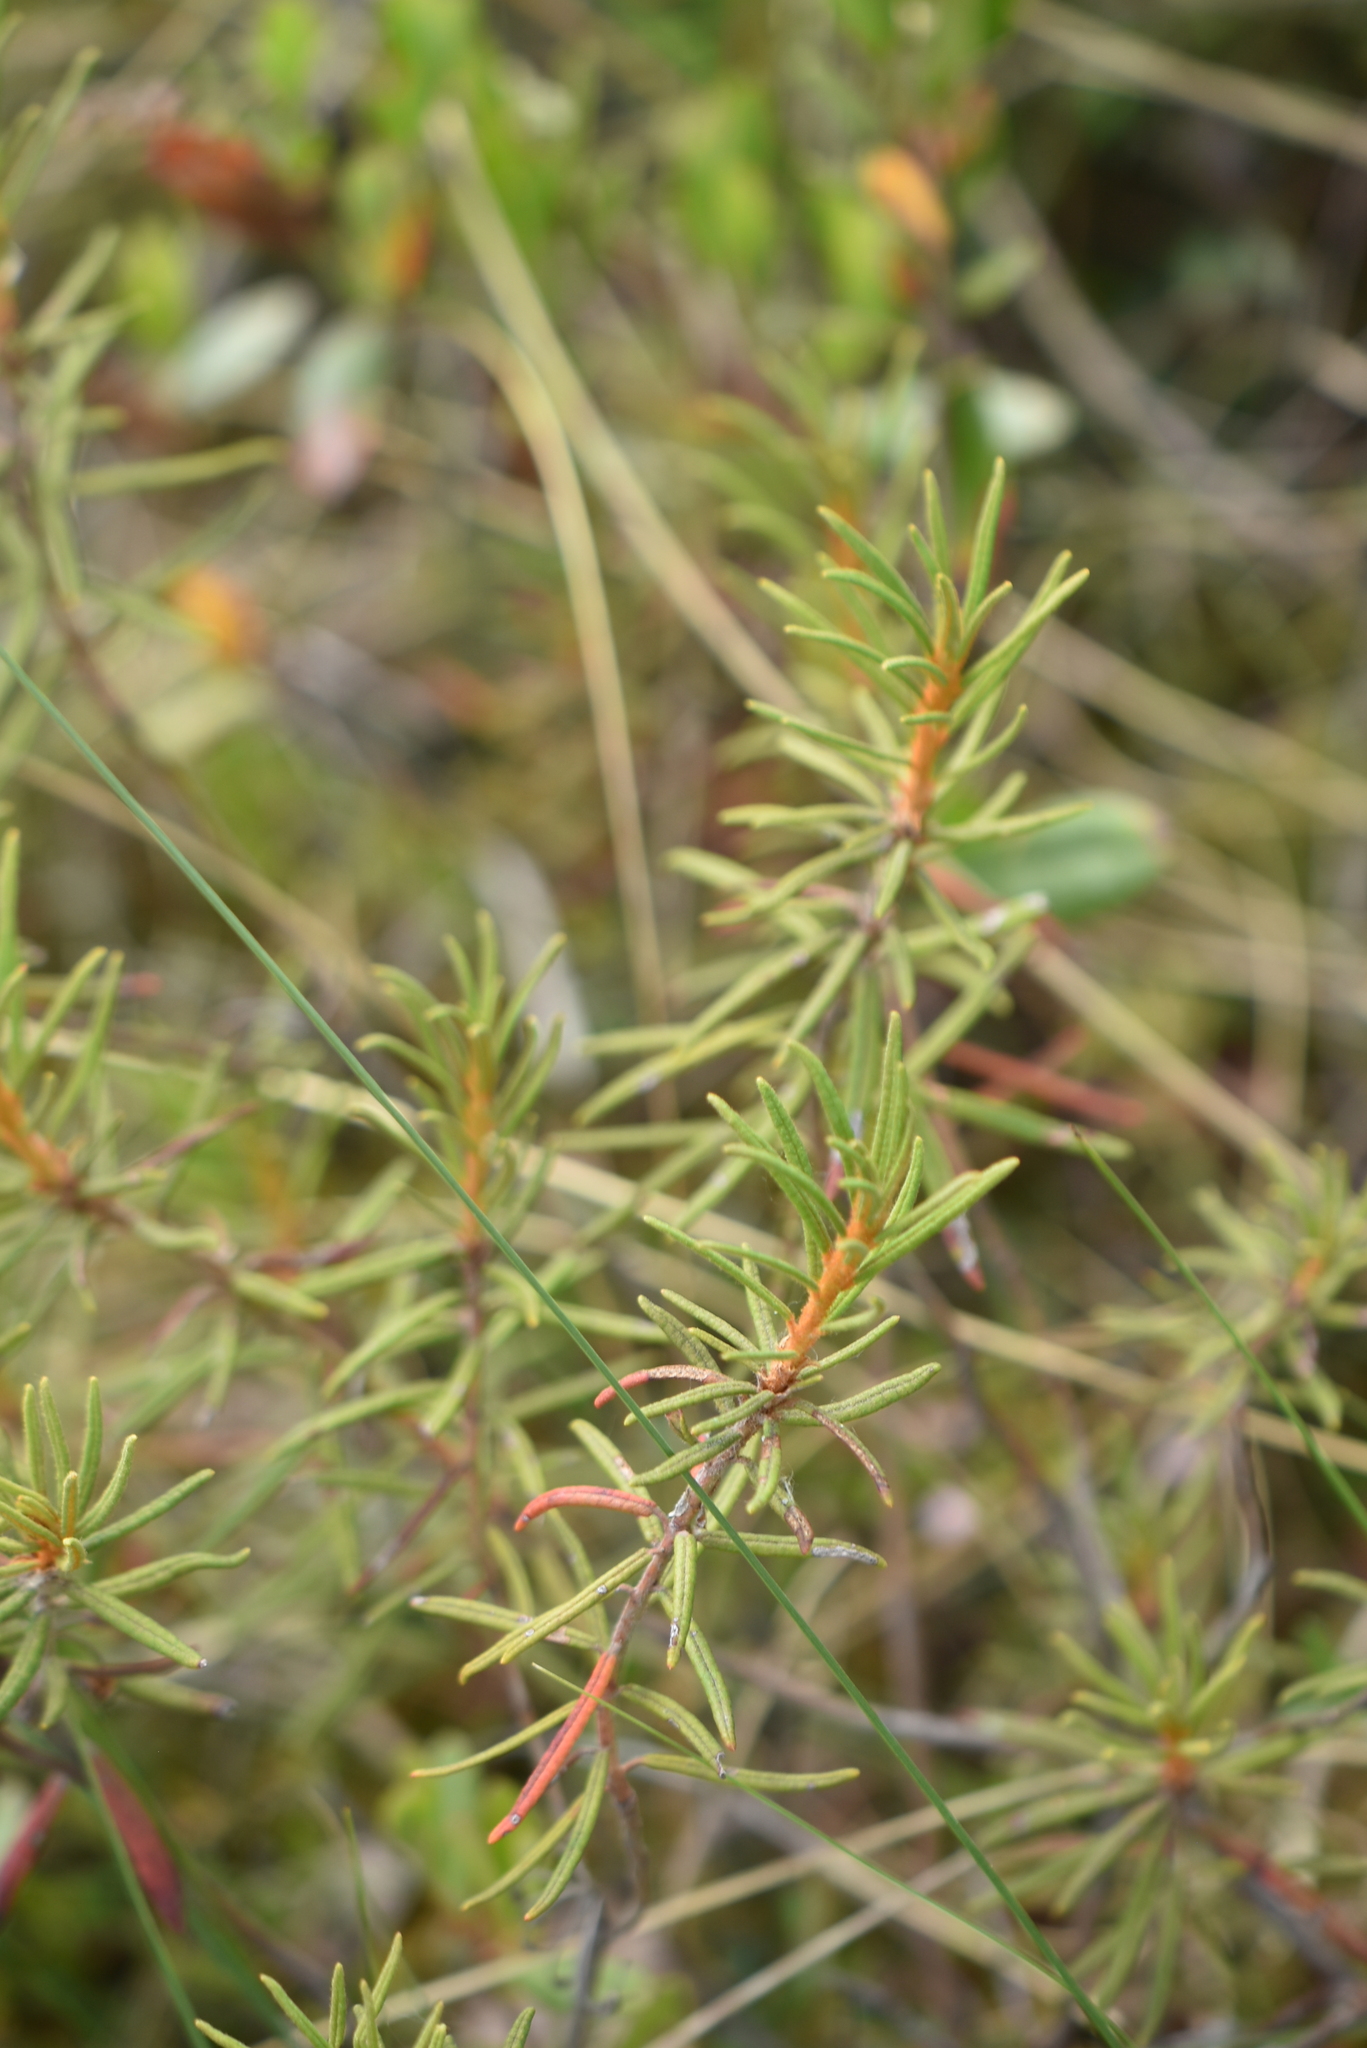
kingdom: Plantae
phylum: Tracheophyta
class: Magnoliopsida
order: Ericales
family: Ericaceae
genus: Rhododendron
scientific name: Rhododendron tomentosum
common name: Marsh labrador tea
